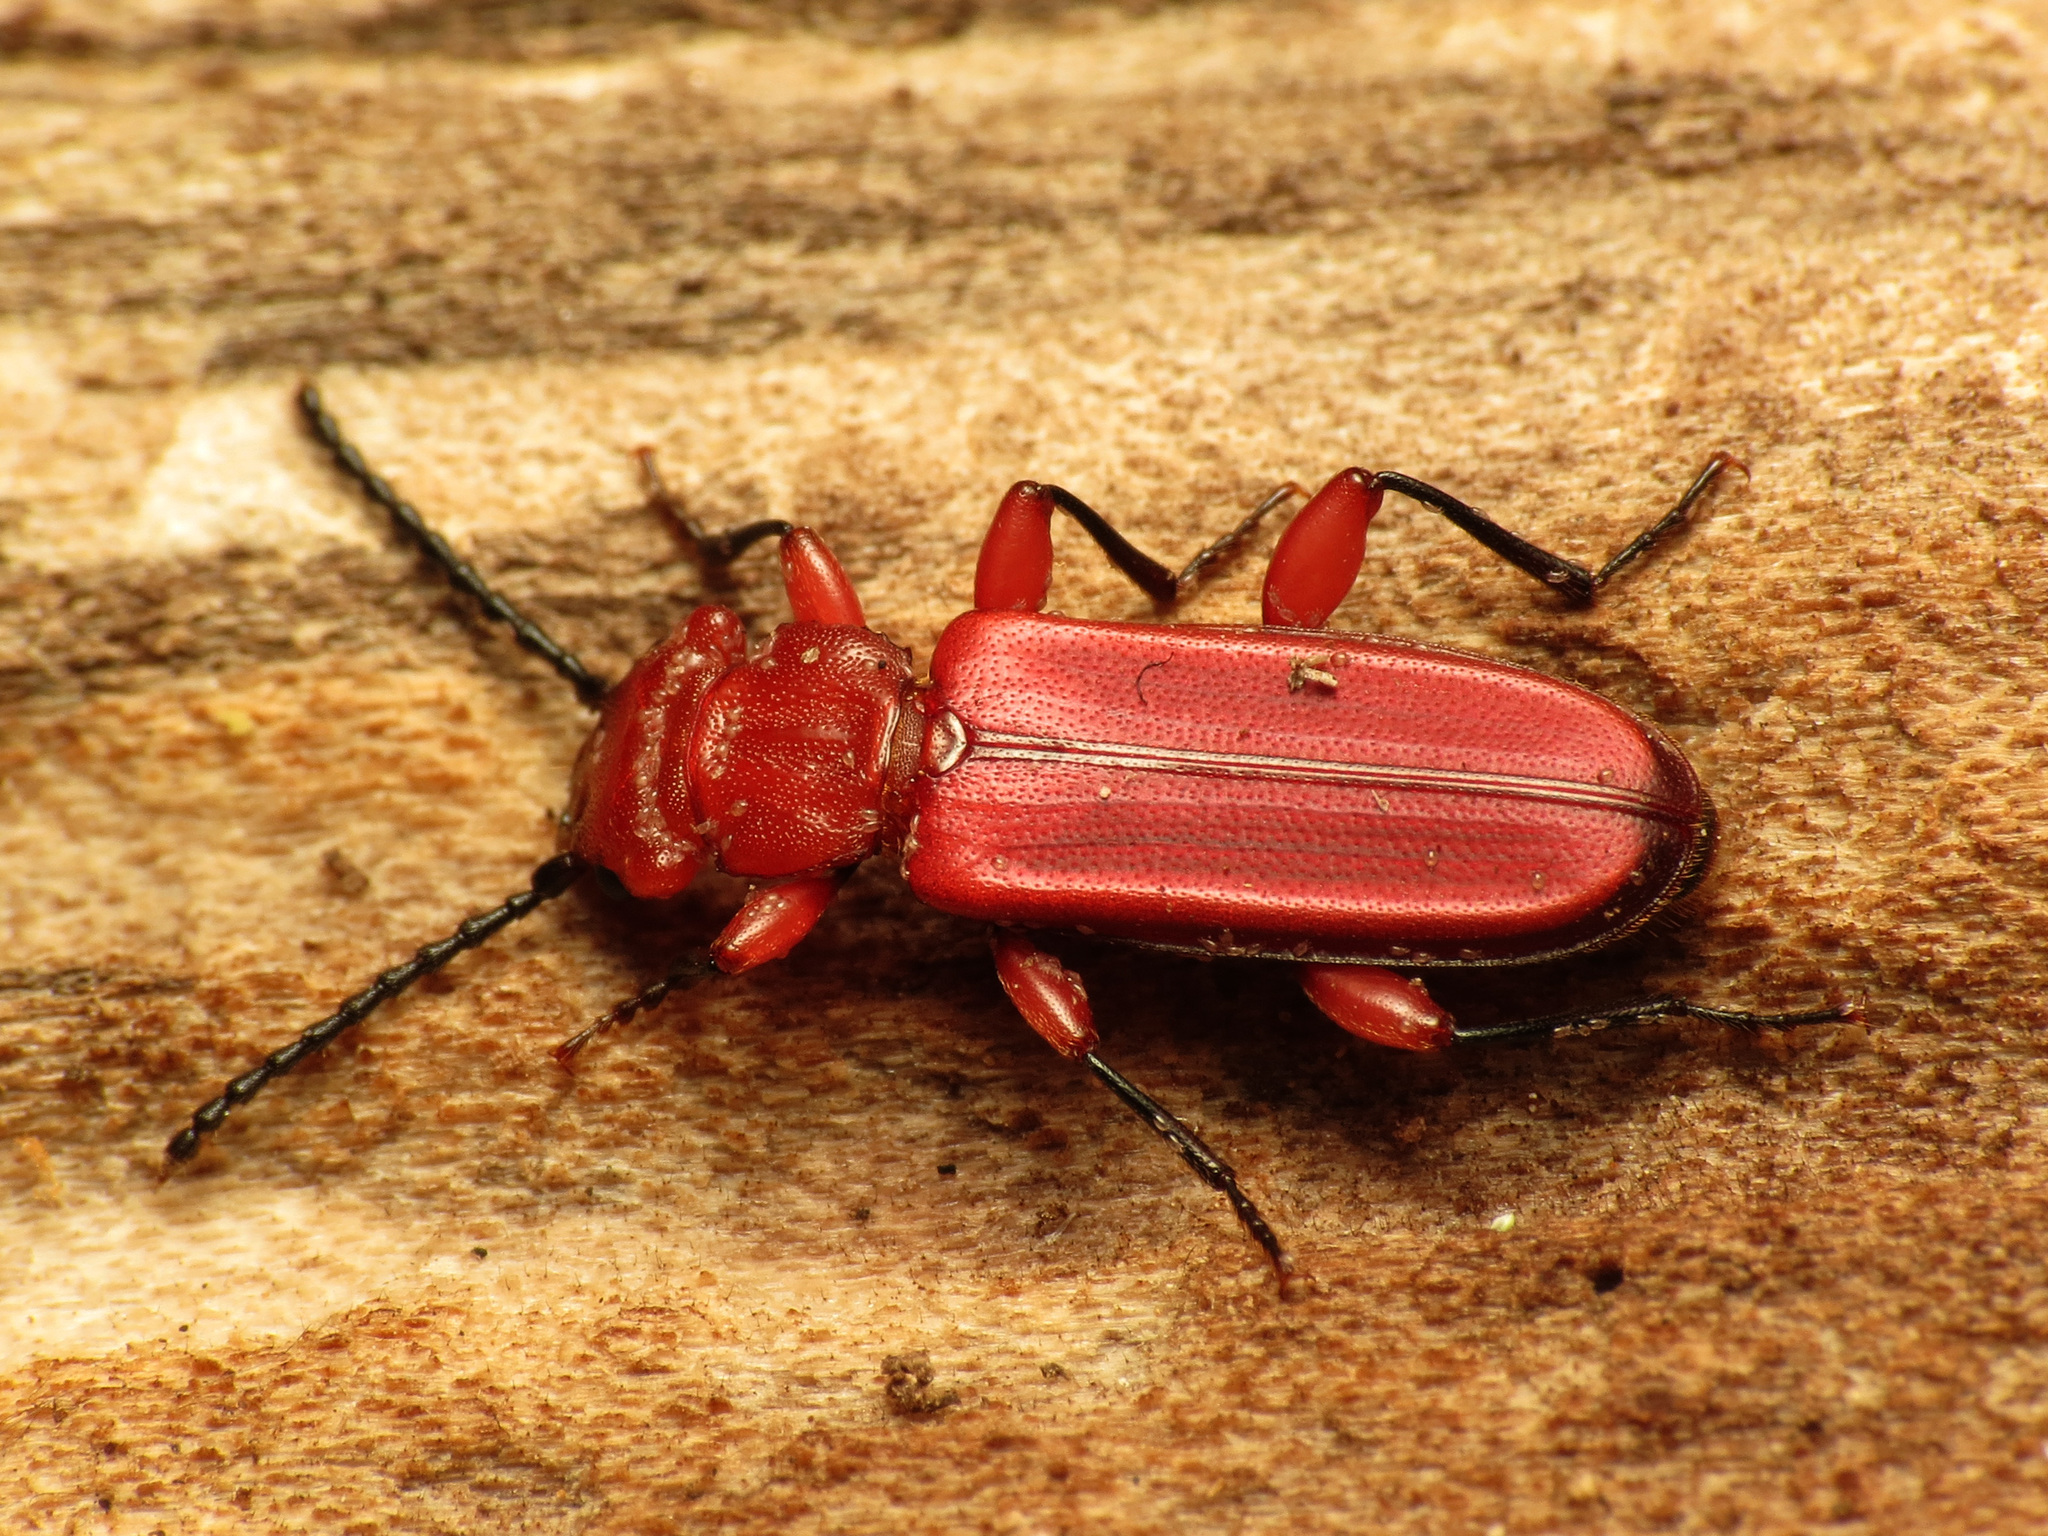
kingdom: Animalia
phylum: Arthropoda
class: Insecta
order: Coleoptera
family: Cucujidae
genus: Cucujus
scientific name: Cucujus clavipes
